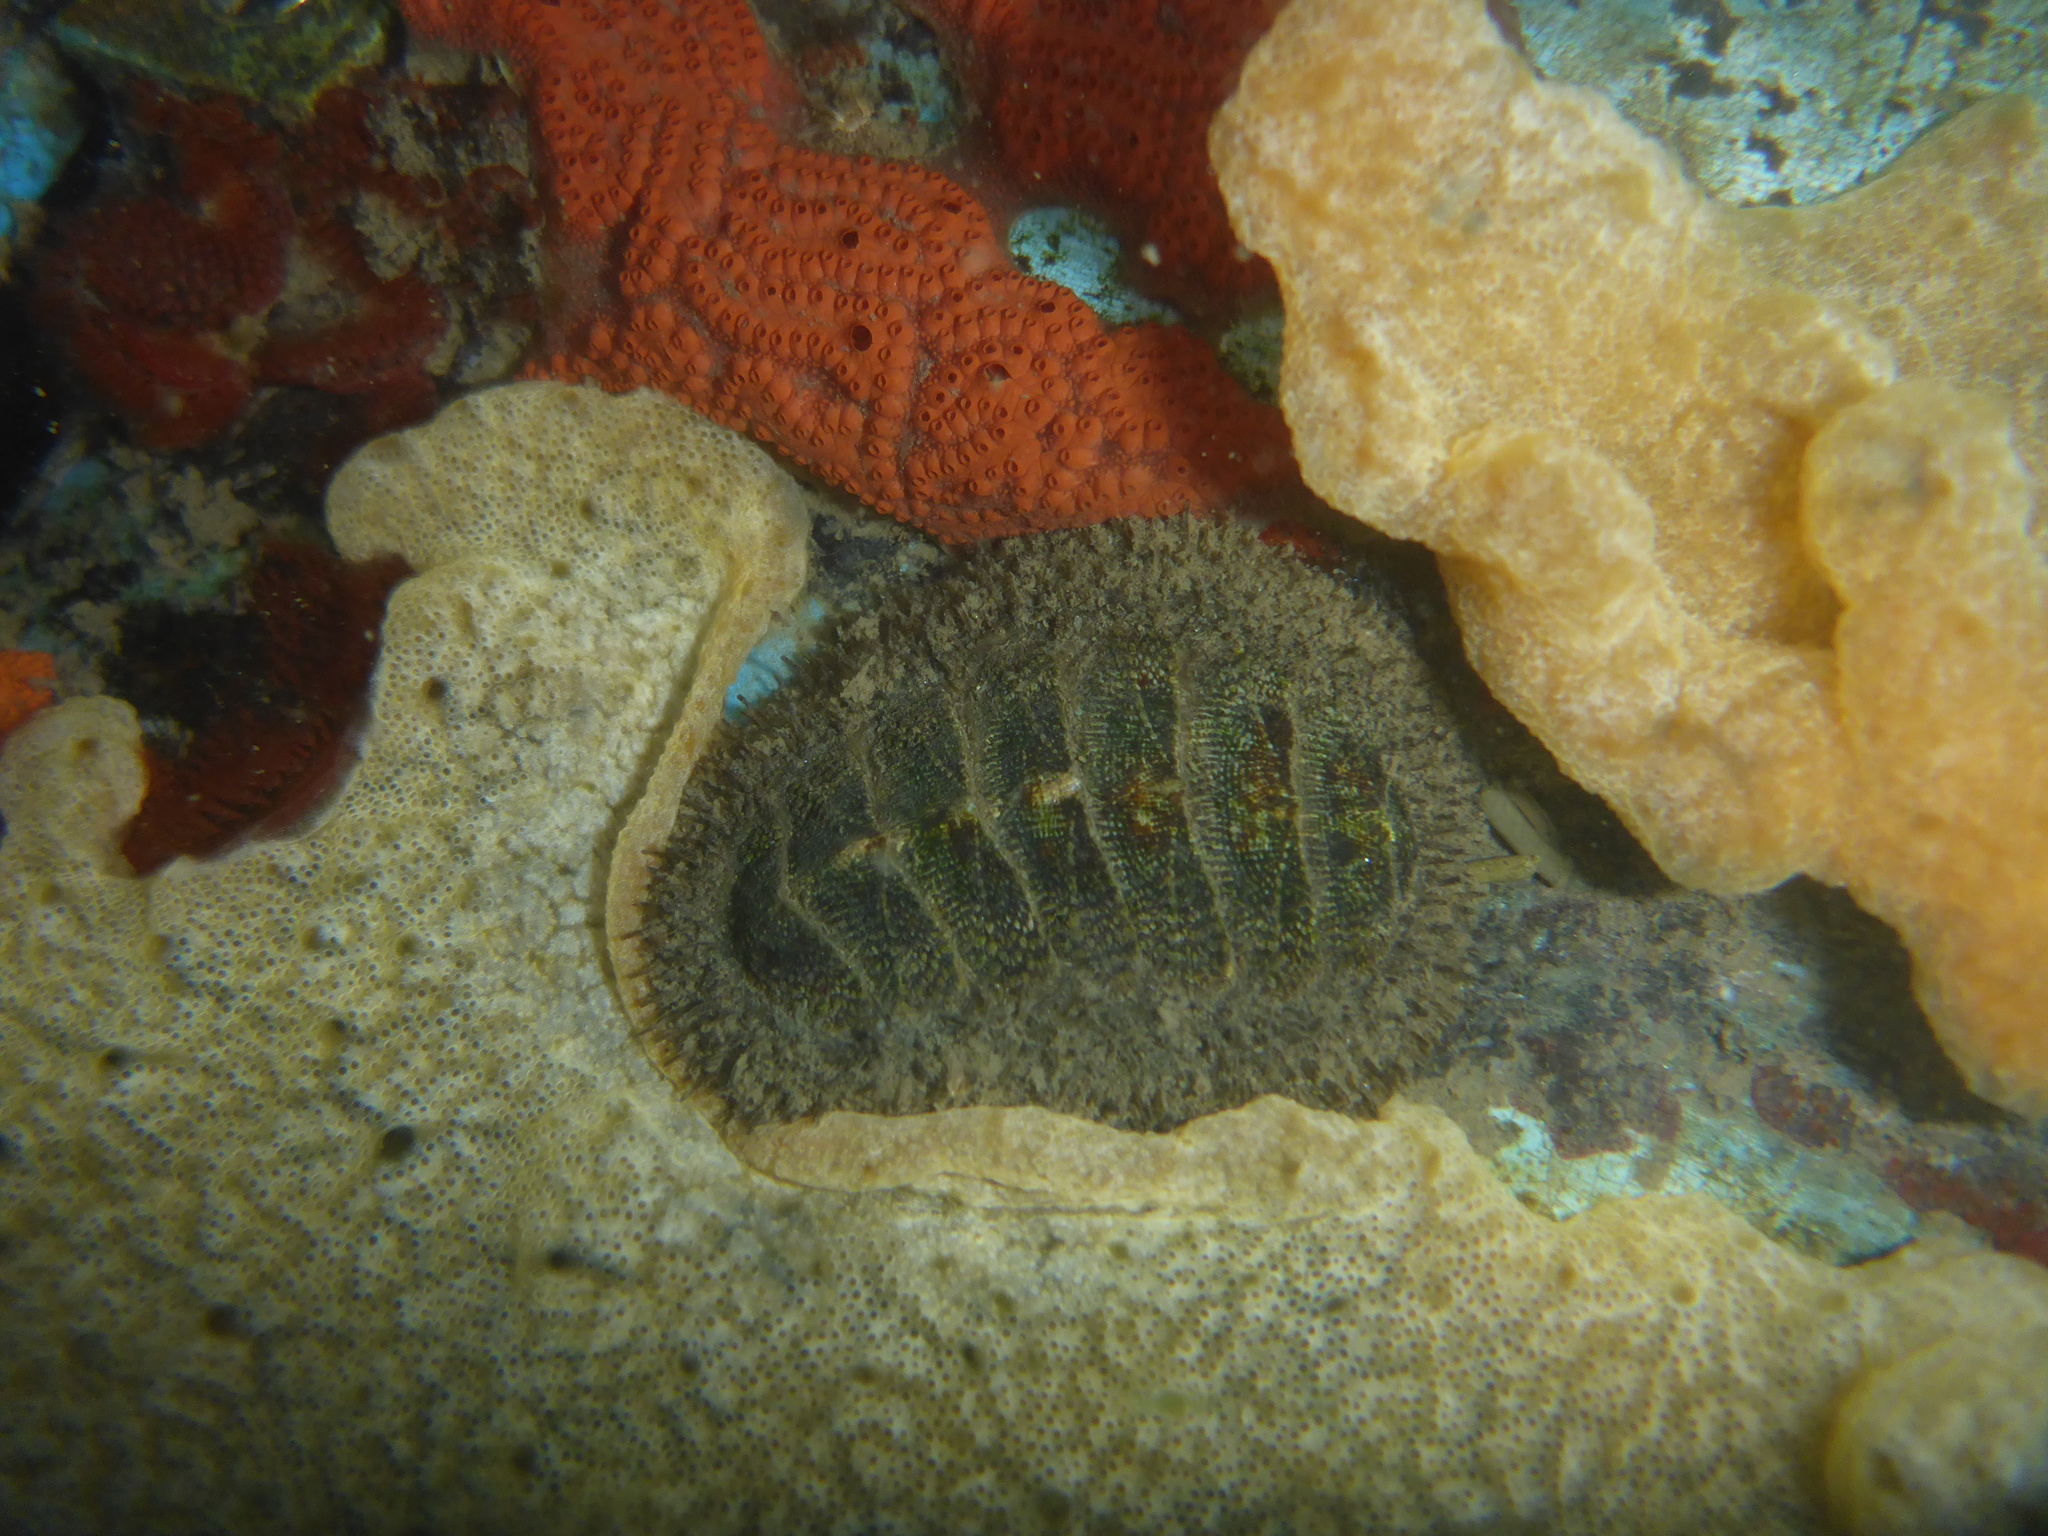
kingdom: Animalia
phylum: Mollusca
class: Polyplacophora
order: Chitonida
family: Mopaliidae
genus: Mopalia
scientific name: Mopalia muscosa
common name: Mossy chiton
